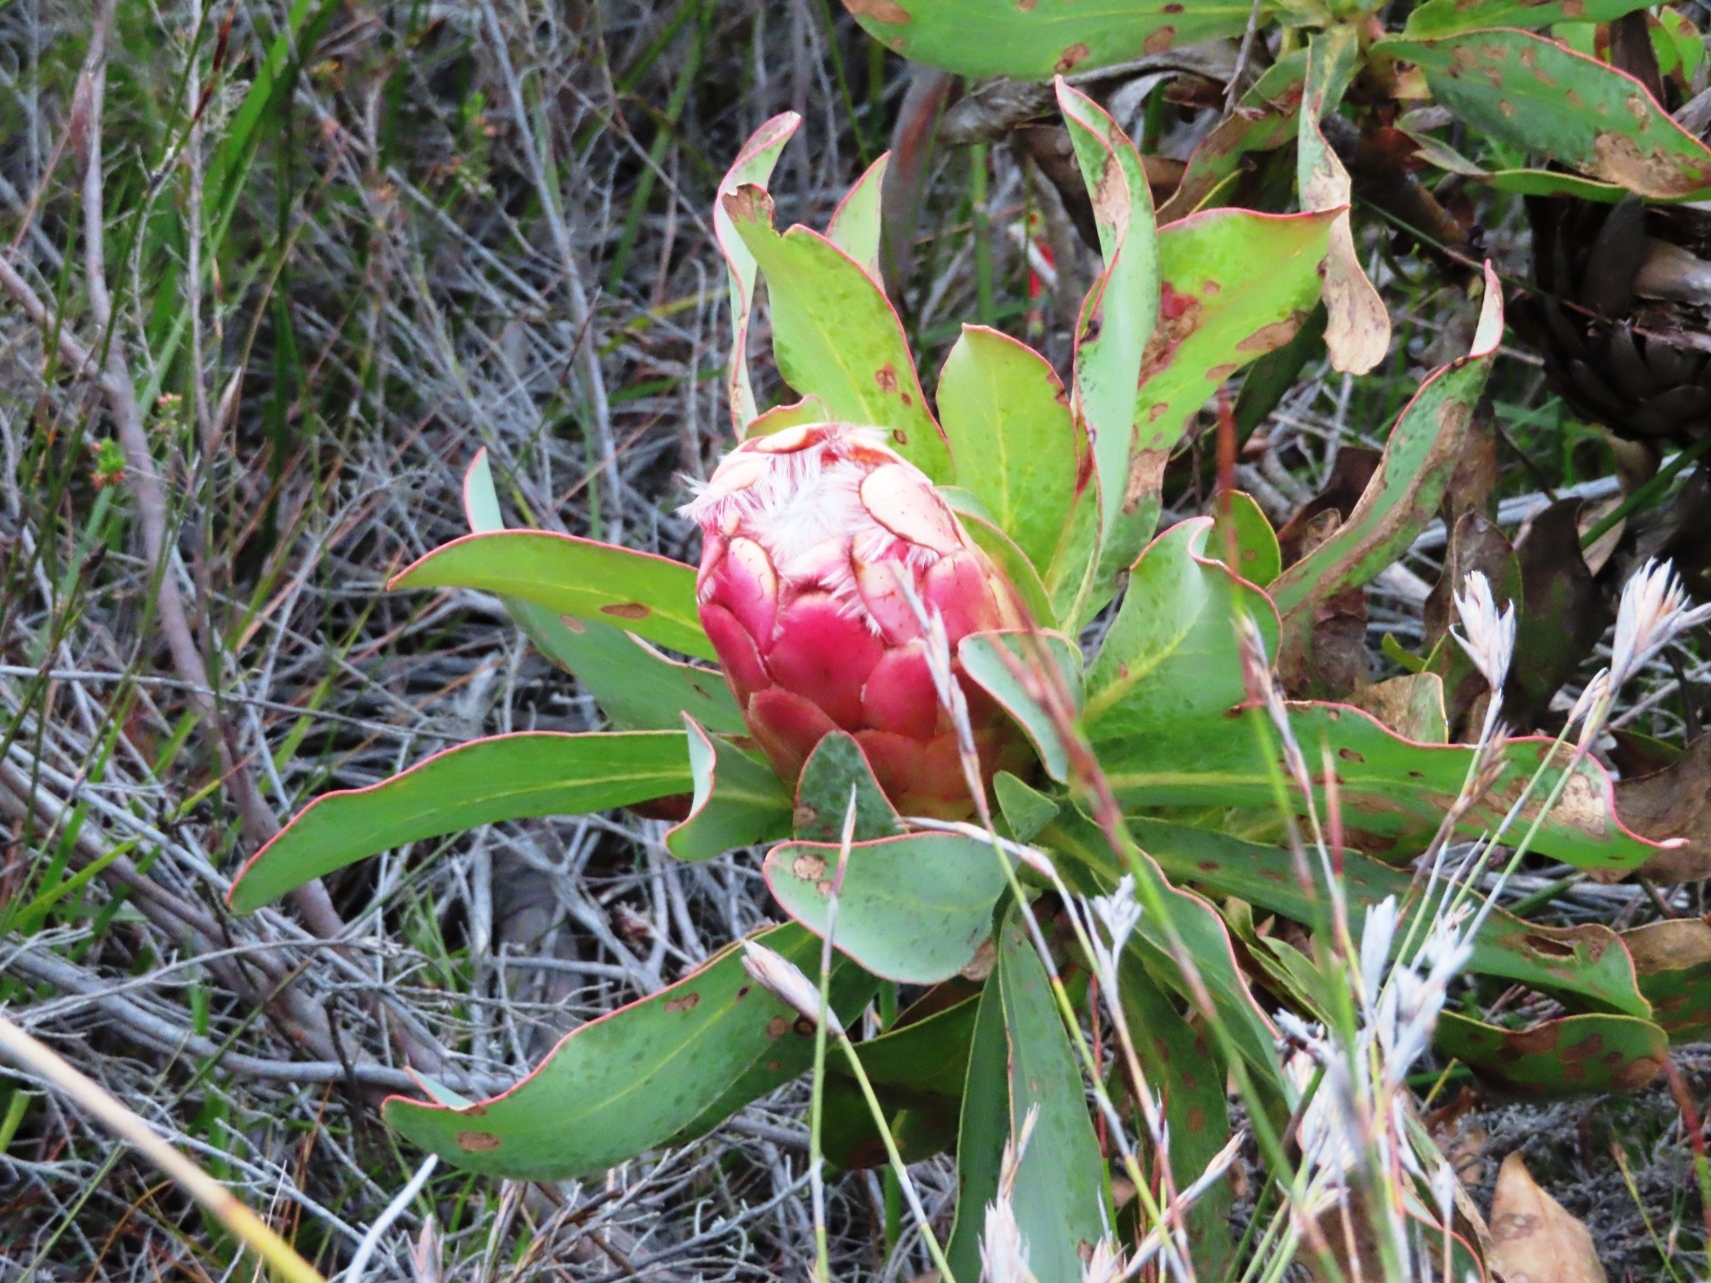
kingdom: Plantae
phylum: Tracheophyta
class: Magnoliopsida
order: Proteales
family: Proteaceae
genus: Protea
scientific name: Protea grandiceps
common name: Red sugarbush
